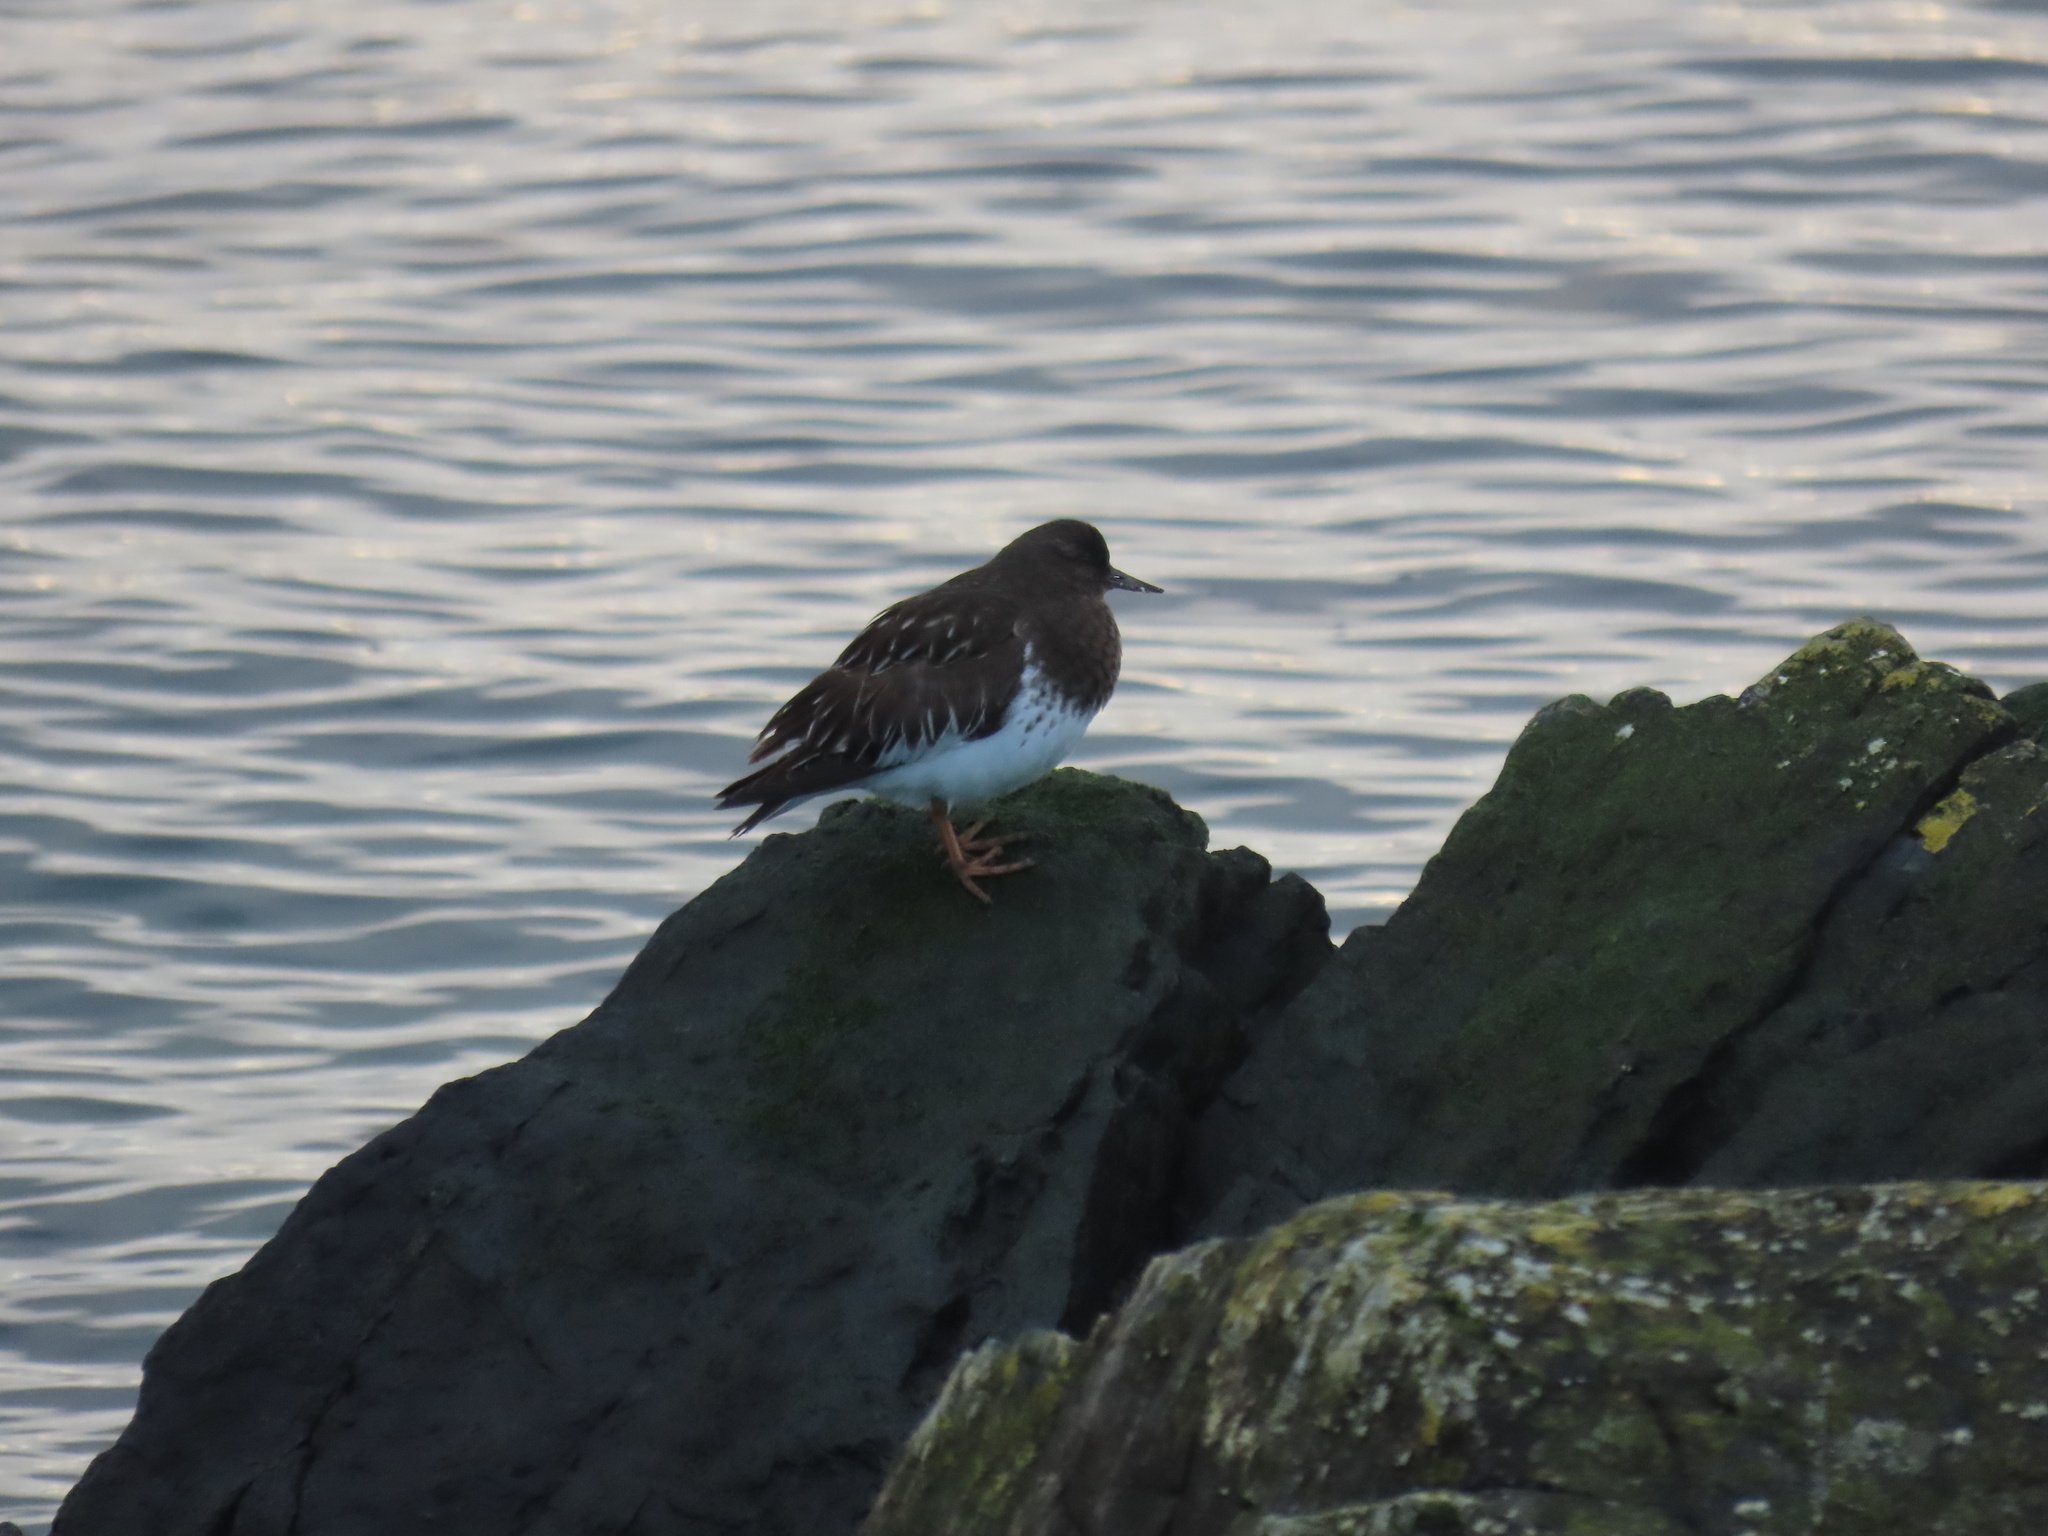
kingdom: Animalia
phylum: Chordata
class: Aves
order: Charadriiformes
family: Scolopacidae
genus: Arenaria
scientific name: Arenaria melanocephala
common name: Black turnstone
